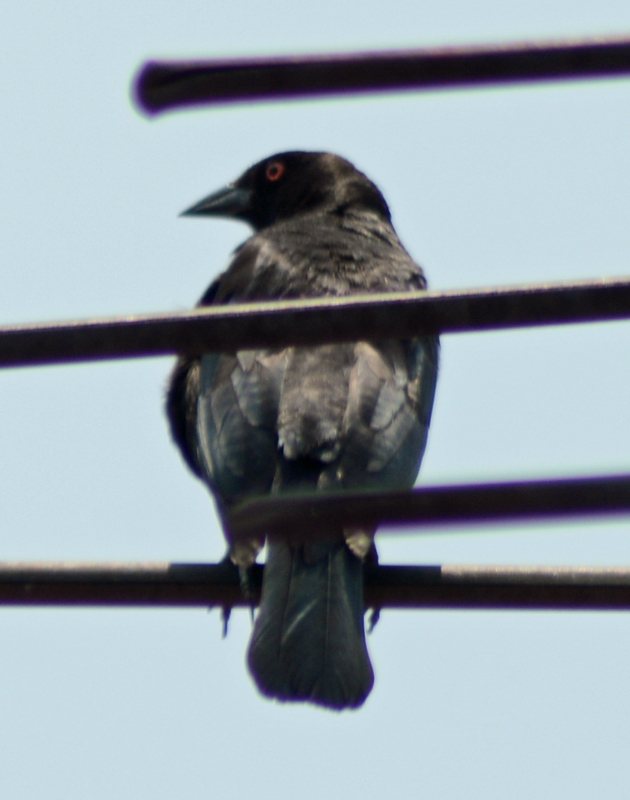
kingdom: Animalia
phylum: Chordata
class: Aves
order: Passeriformes
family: Icteridae
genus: Molothrus
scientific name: Molothrus aeneus
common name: Bronzed cowbird
